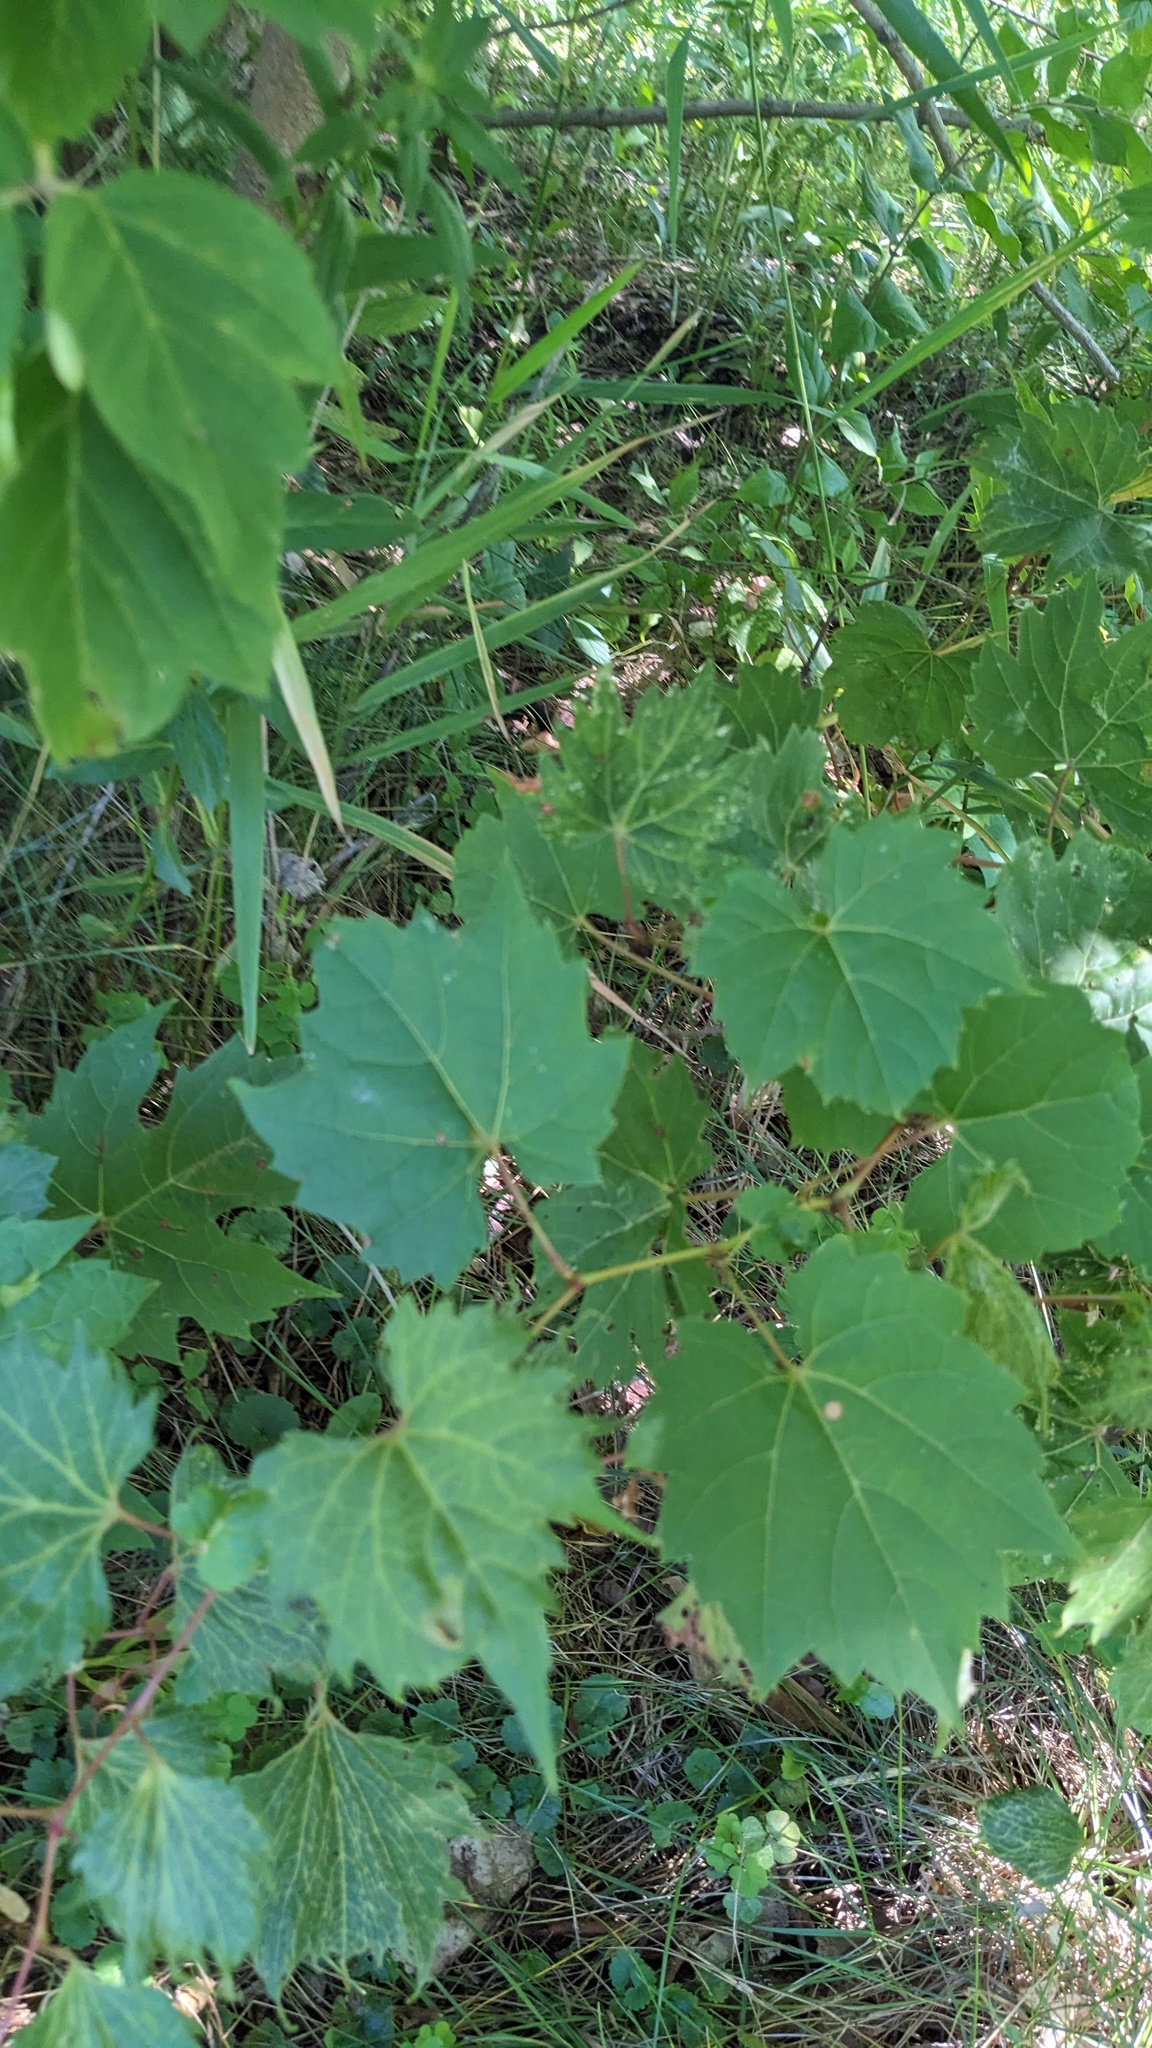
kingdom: Plantae
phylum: Tracheophyta
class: Magnoliopsida
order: Vitales
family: Vitaceae
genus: Vitis
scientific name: Vitis riparia
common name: Frost grape
